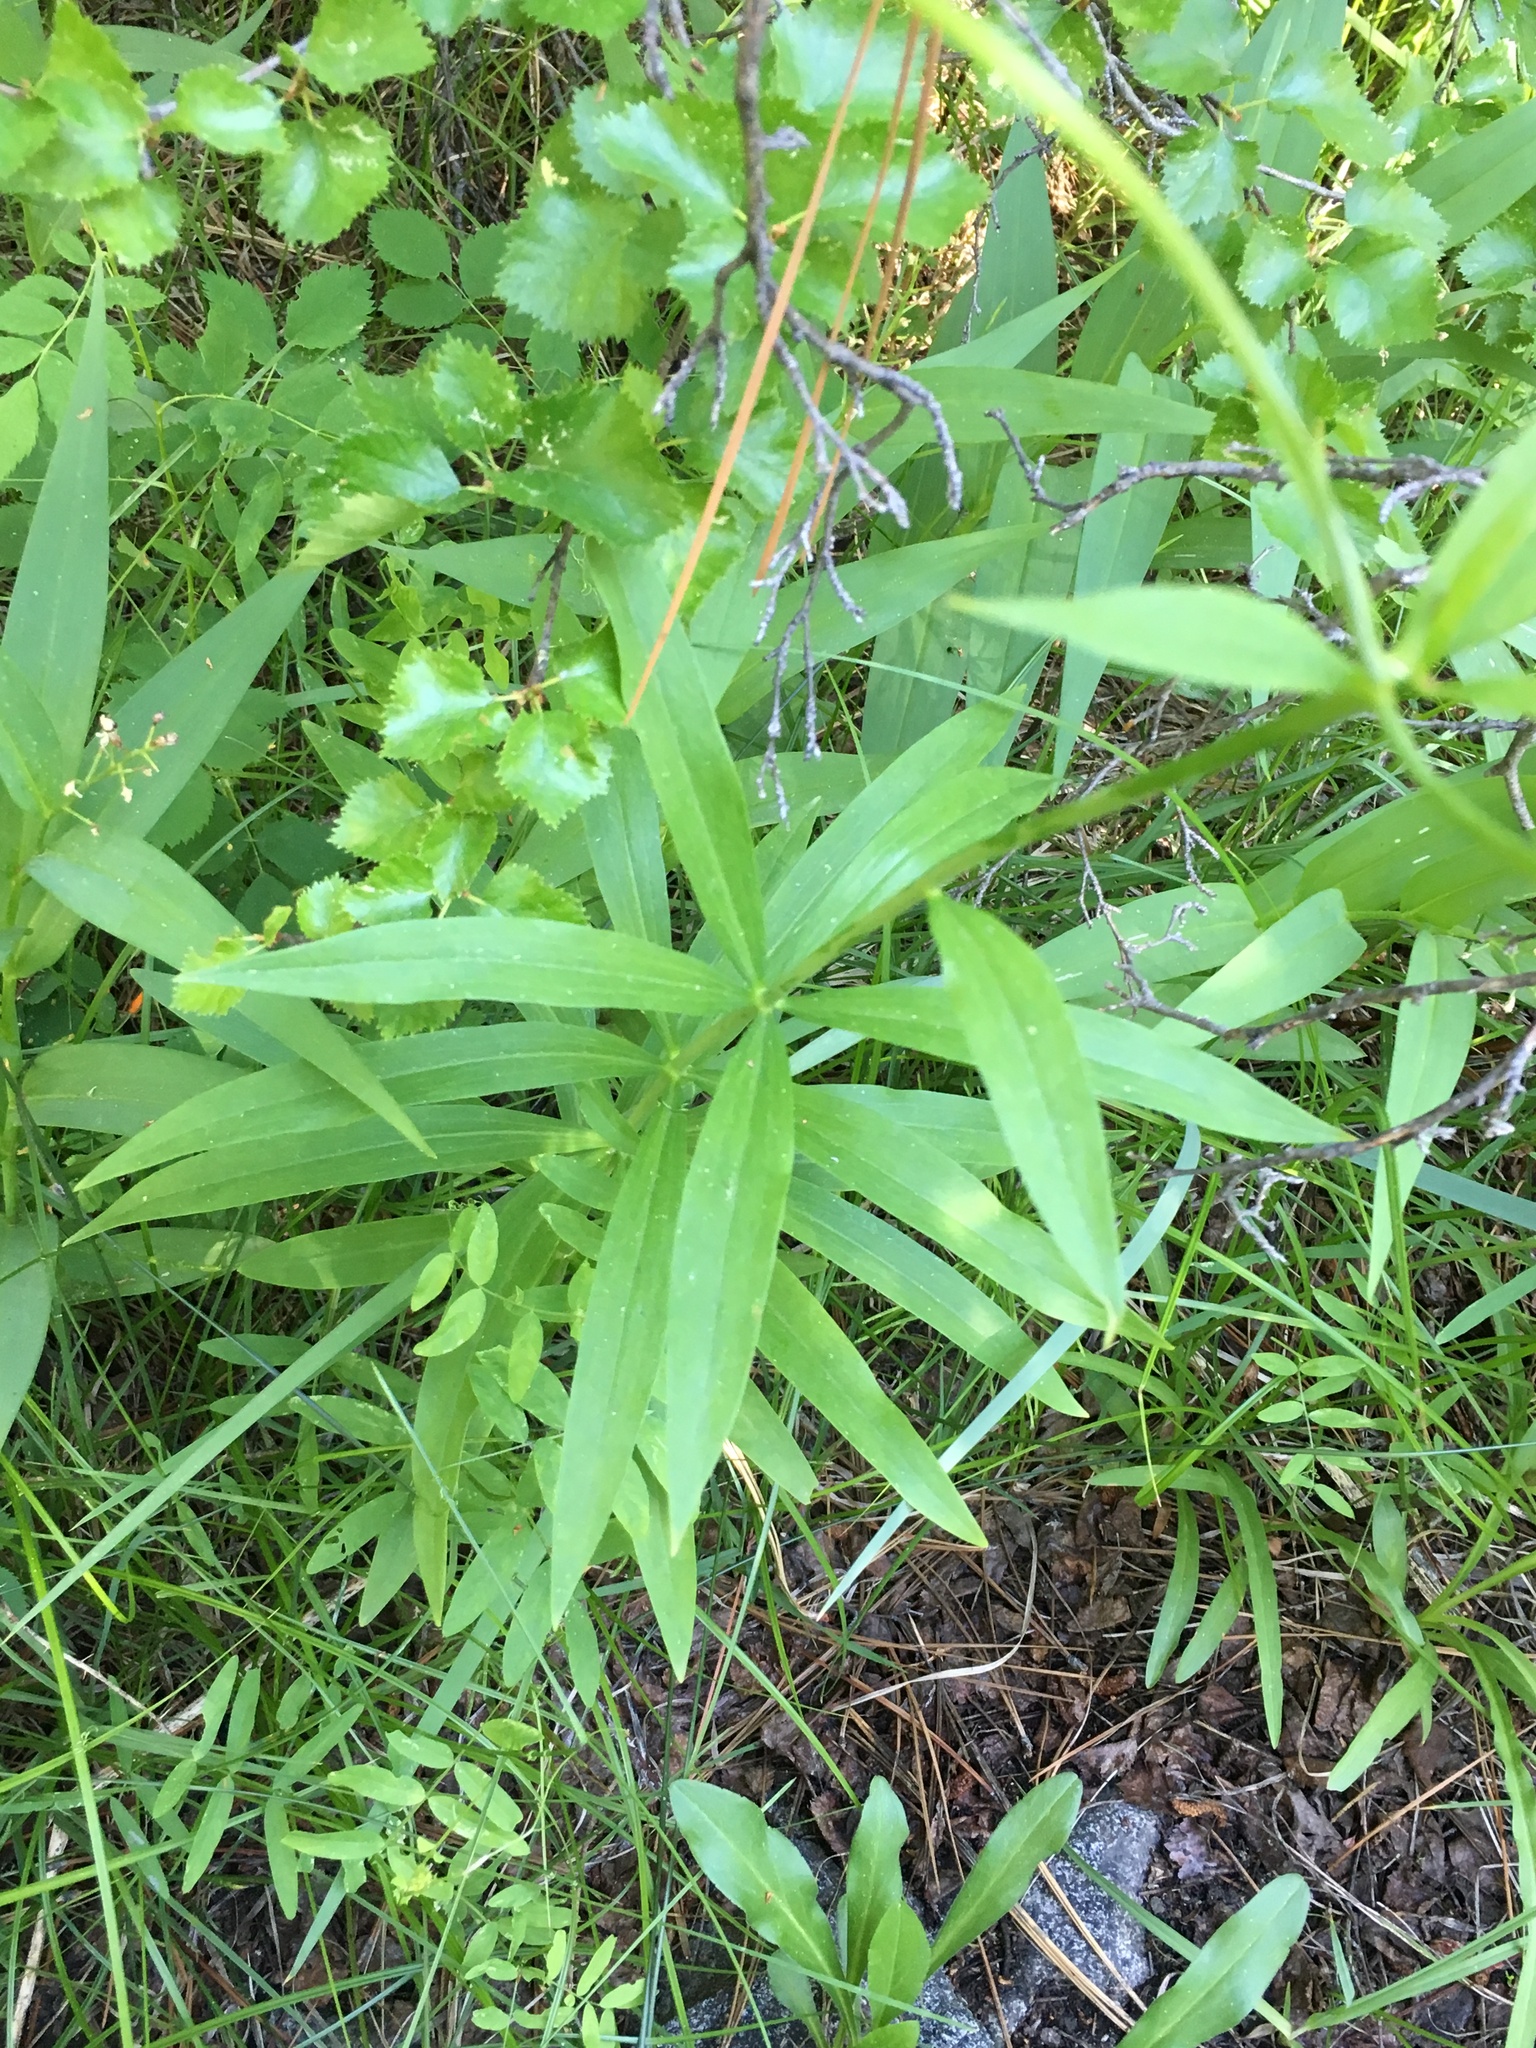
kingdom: Plantae
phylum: Tracheophyta
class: Liliopsida
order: Liliales
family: Liliaceae
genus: Lilium
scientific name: Lilium kelleyanum
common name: Kelley's lily
